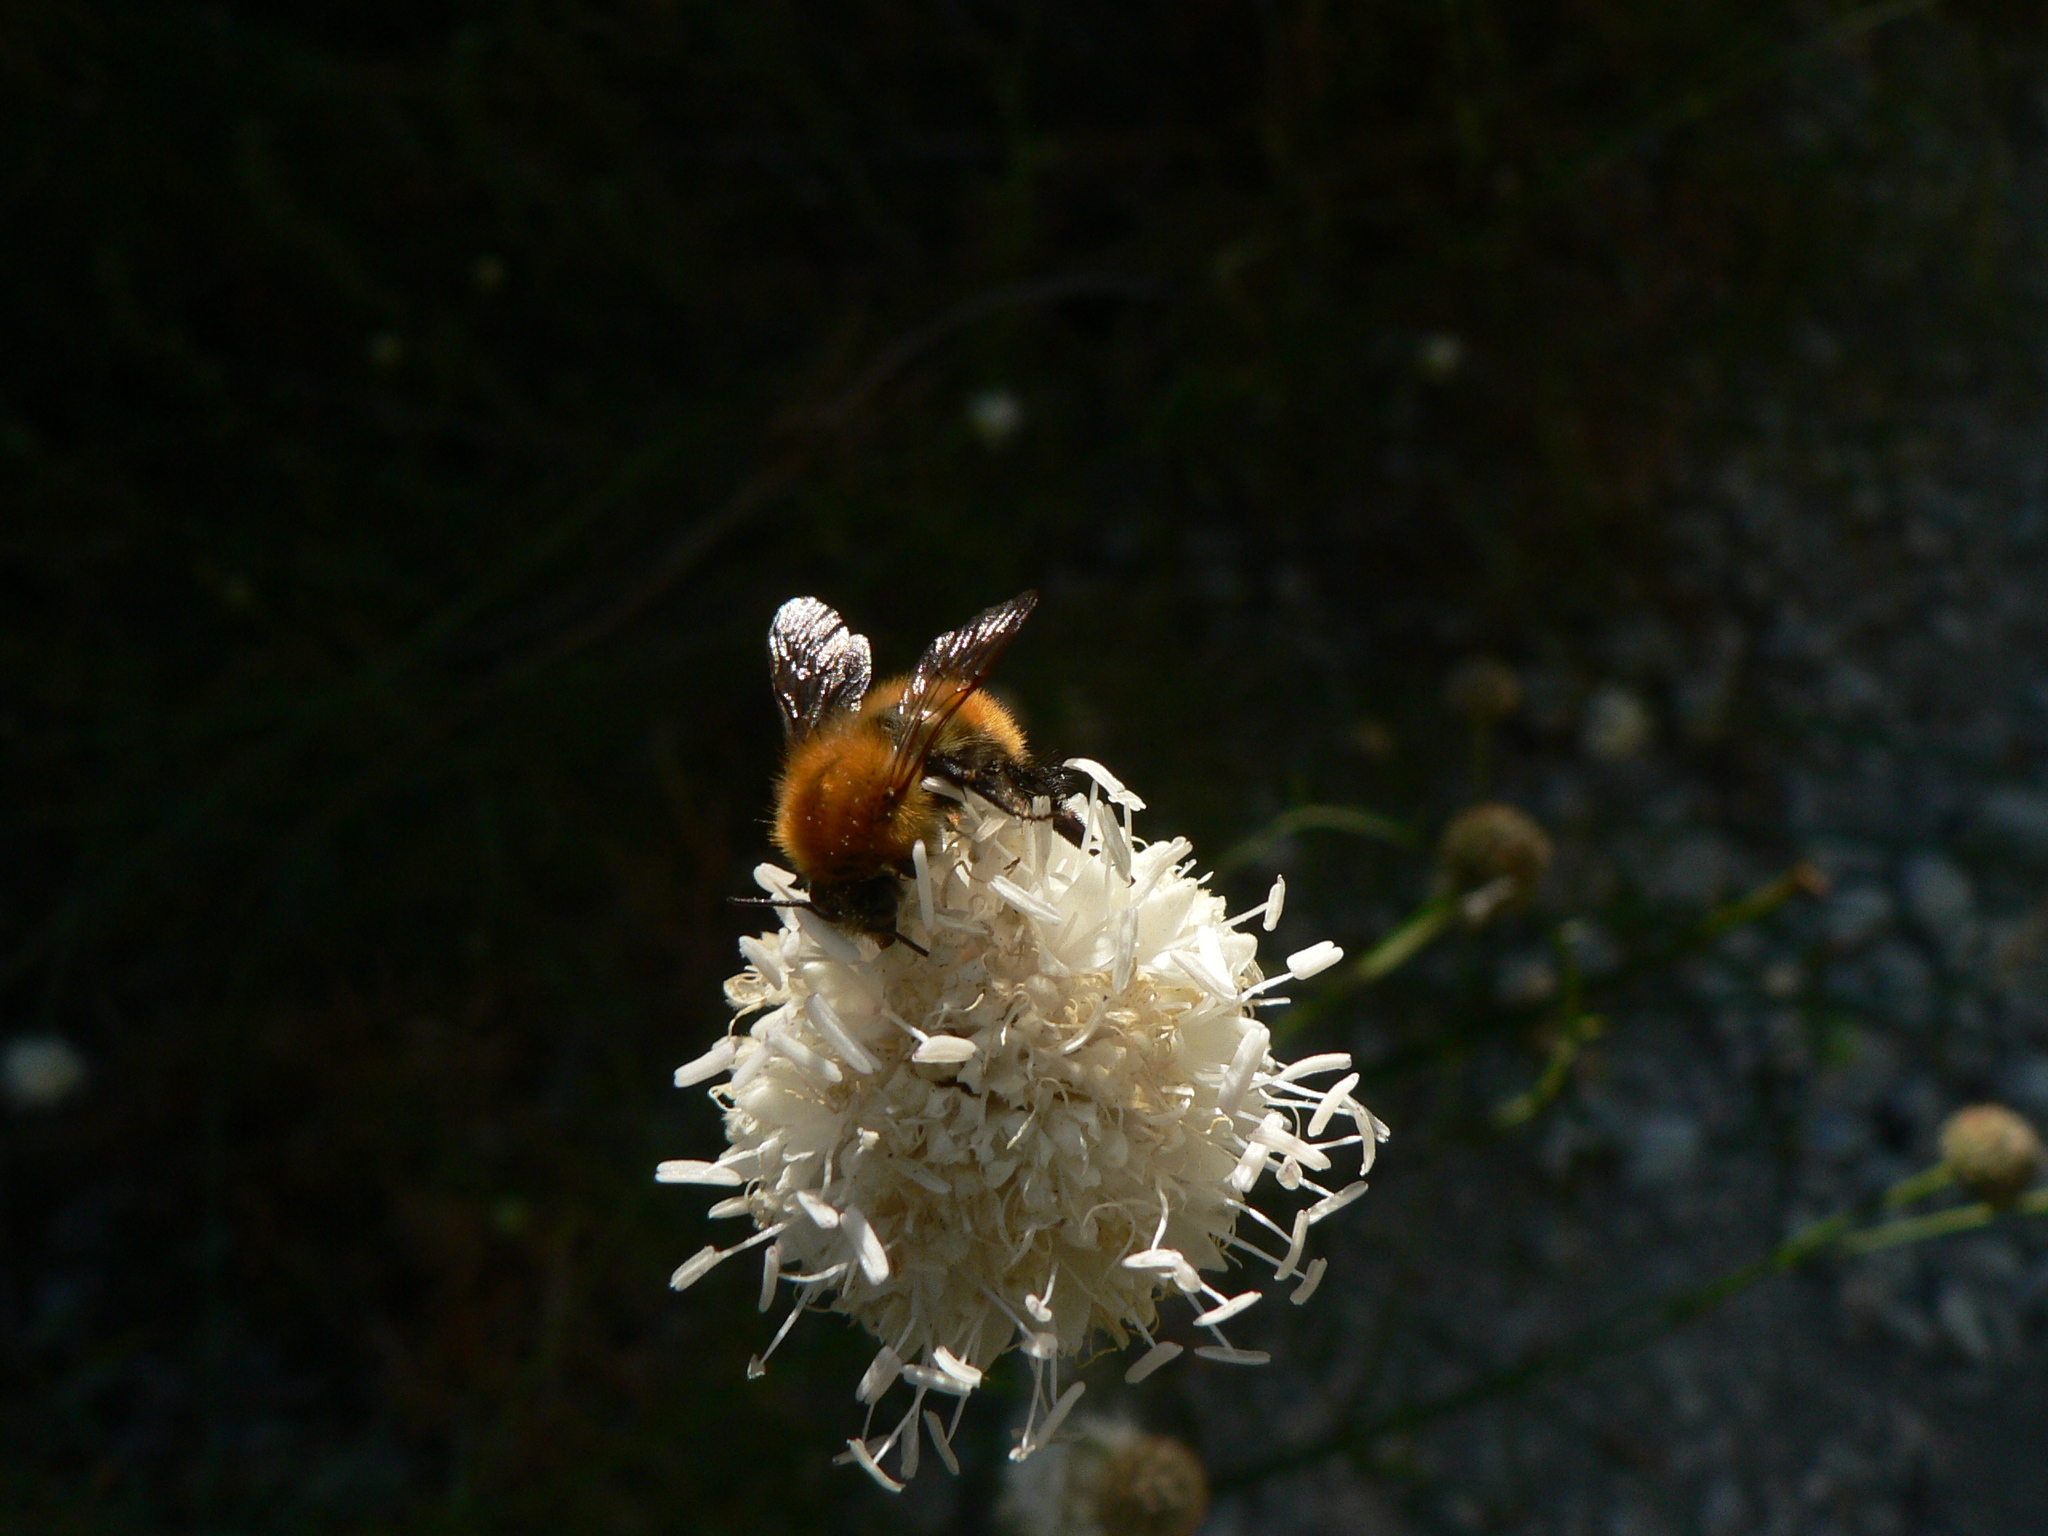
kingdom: Animalia
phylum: Arthropoda
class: Insecta
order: Hymenoptera
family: Apidae
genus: Bombus
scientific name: Bombus pascuorum
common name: Common carder bee
